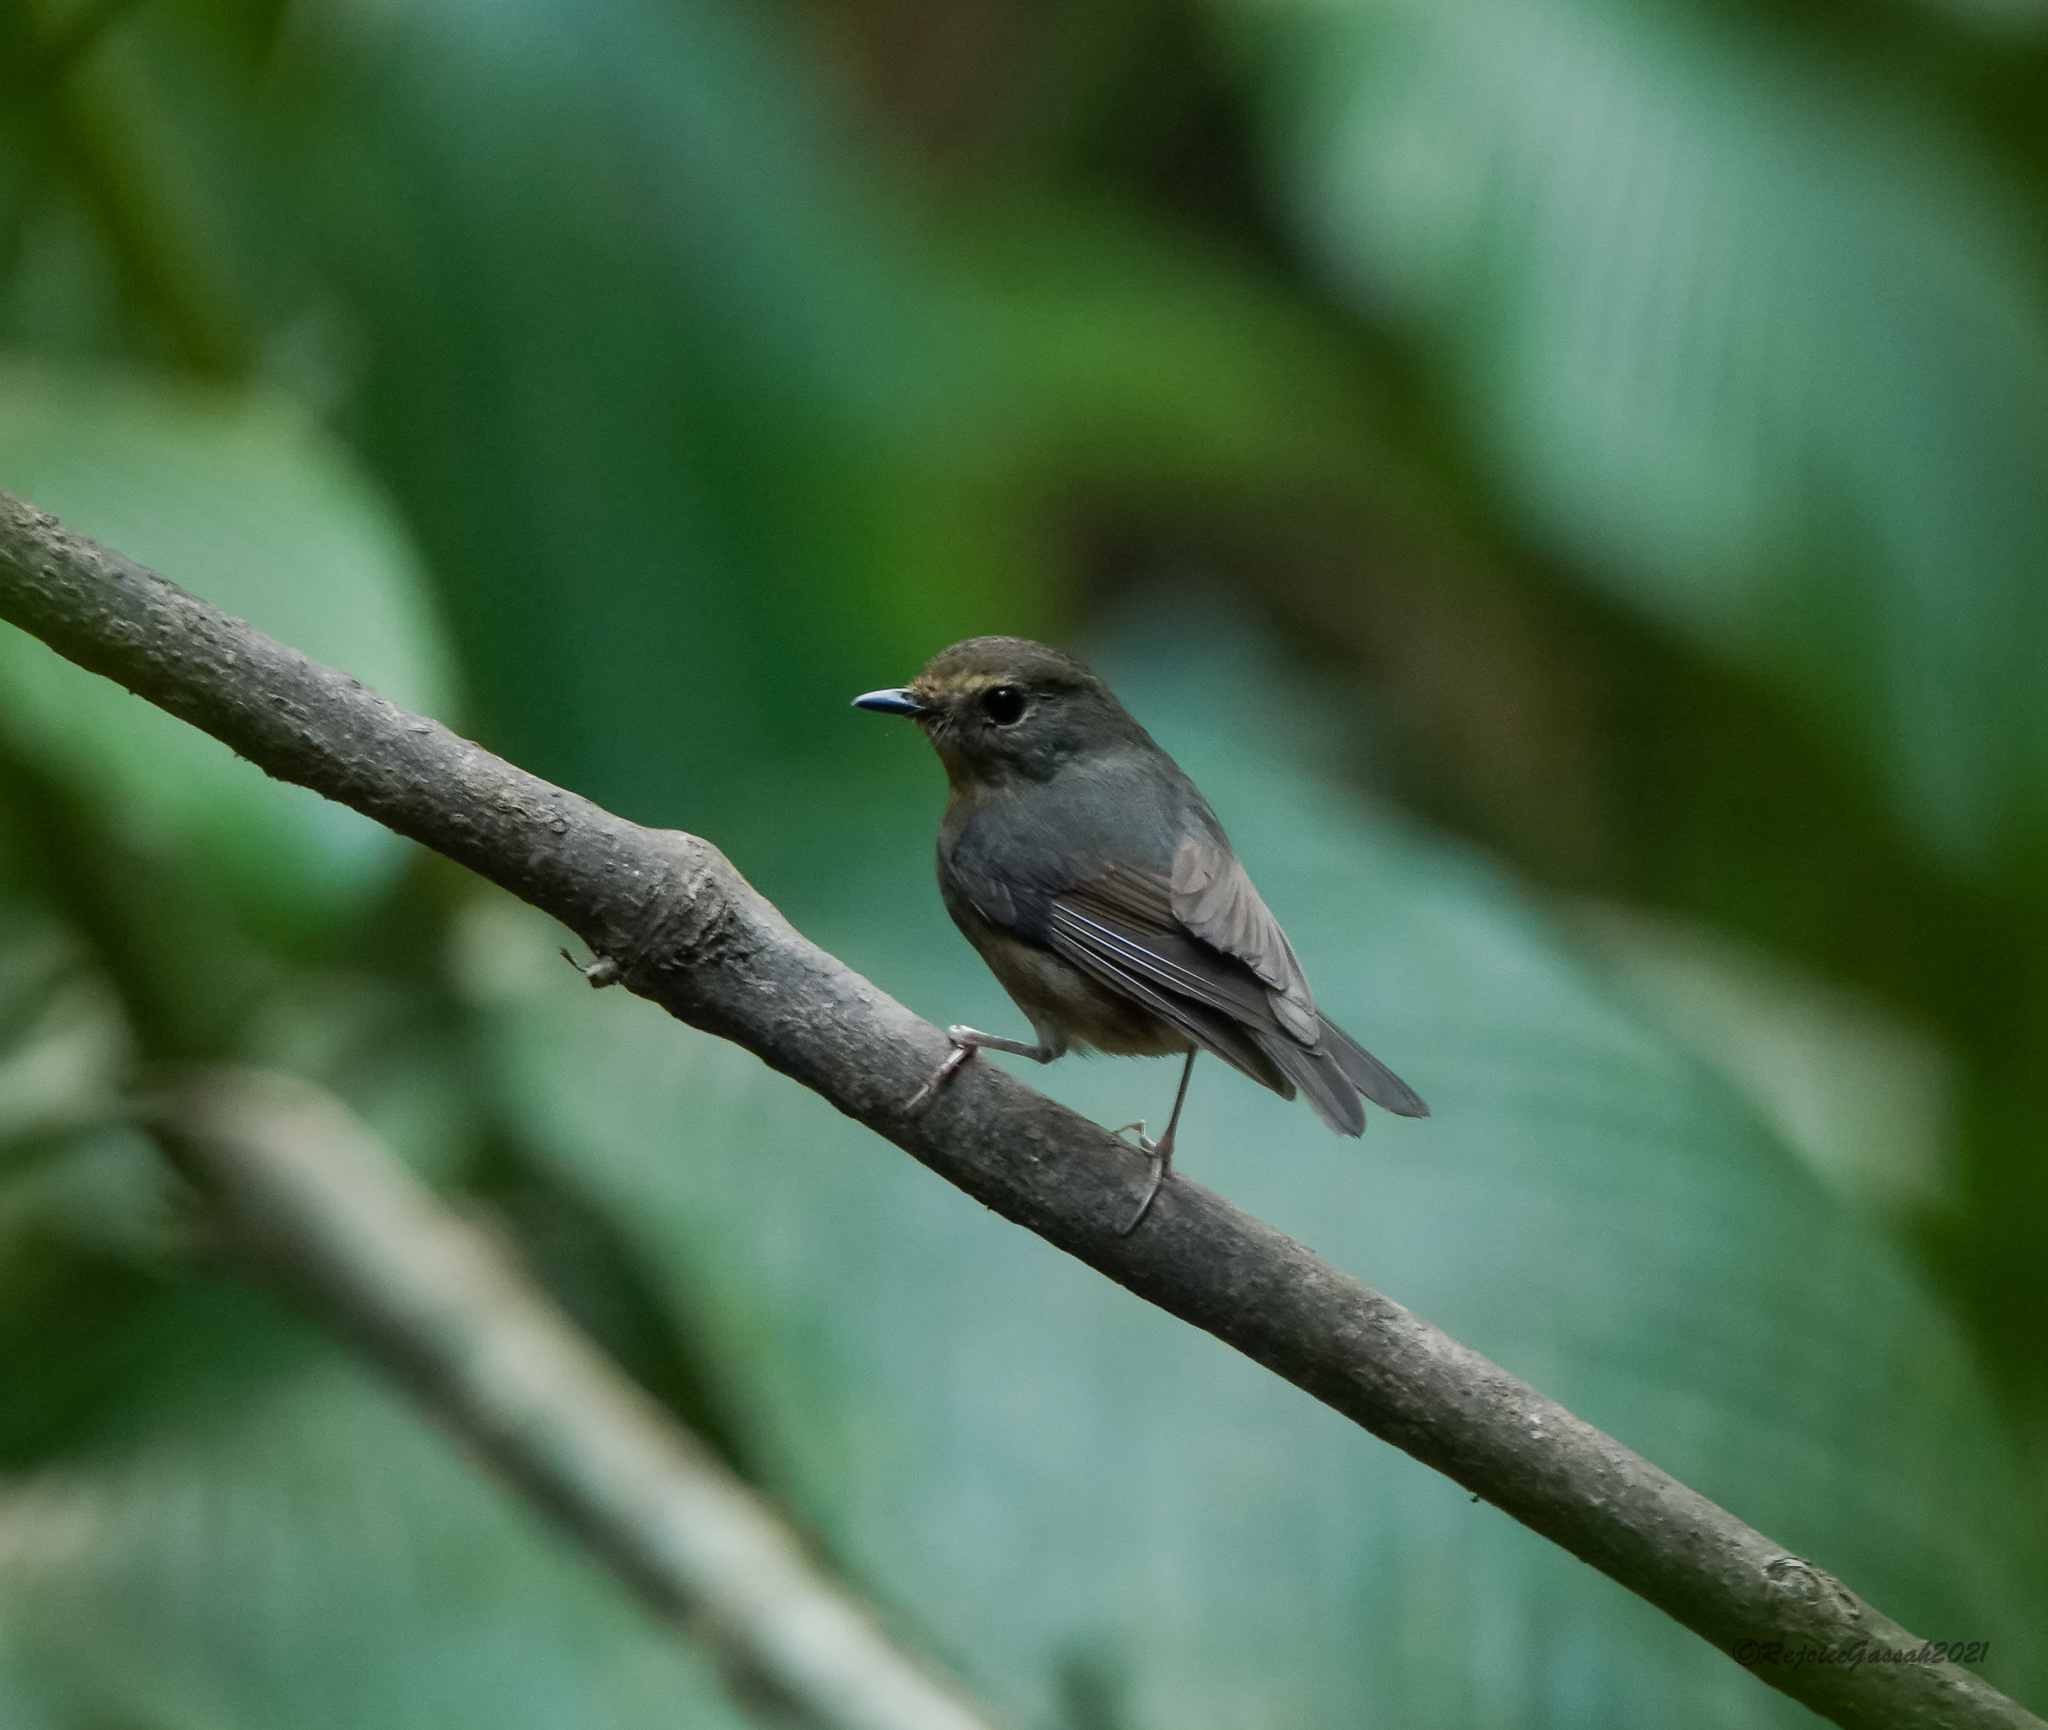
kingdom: Animalia
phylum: Chordata
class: Aves
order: Passeriformes
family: Muscicapidae
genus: Ficedula
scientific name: Ficedula hyperythra
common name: Snowy-browed flycatcher
